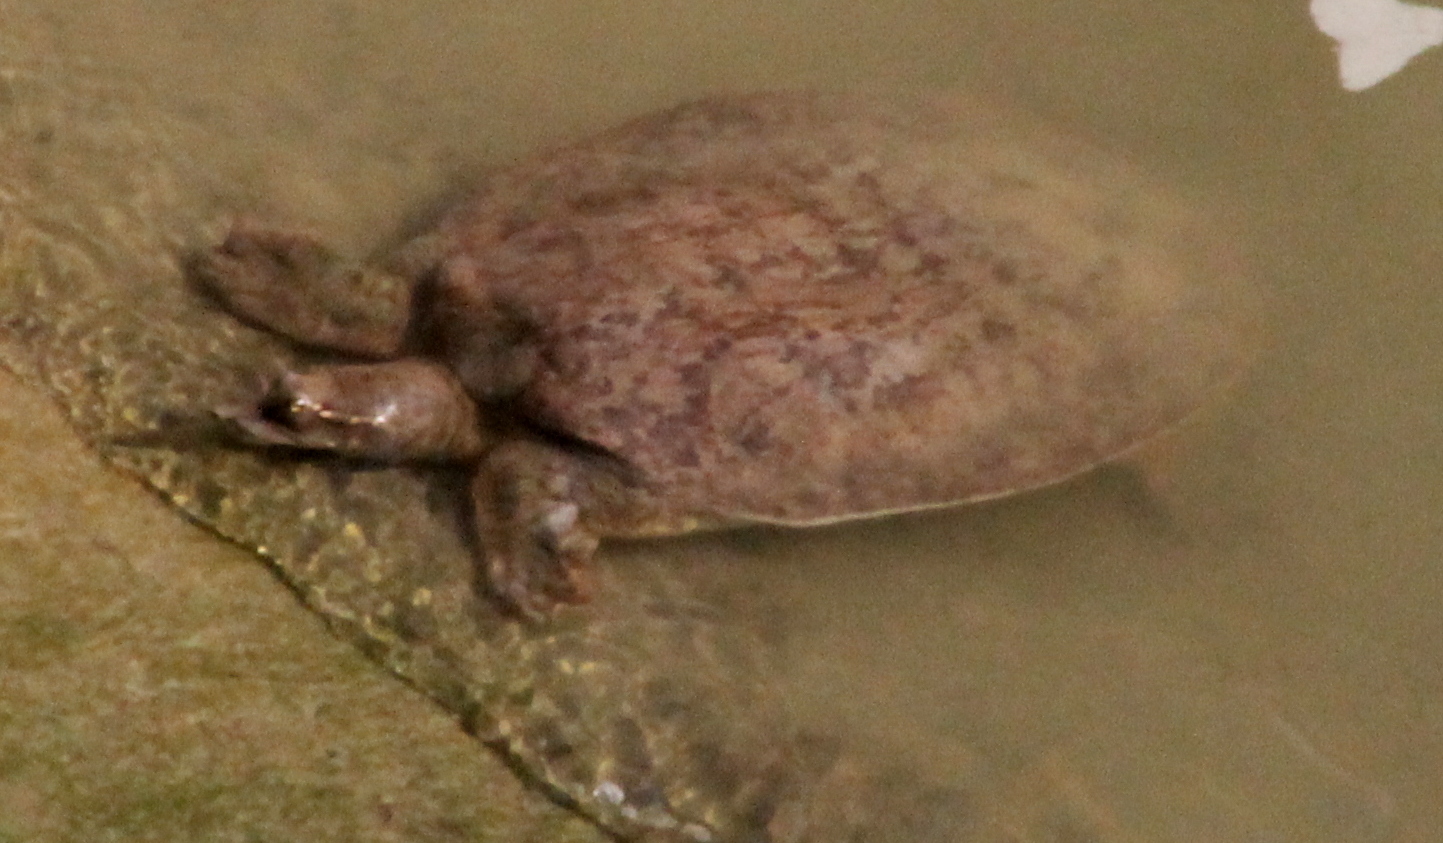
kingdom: Animalia
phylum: Chordata
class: Testudines
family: Trionychidae
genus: Apalone
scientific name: Apalone spinifera
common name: Spiny softshell turtle
